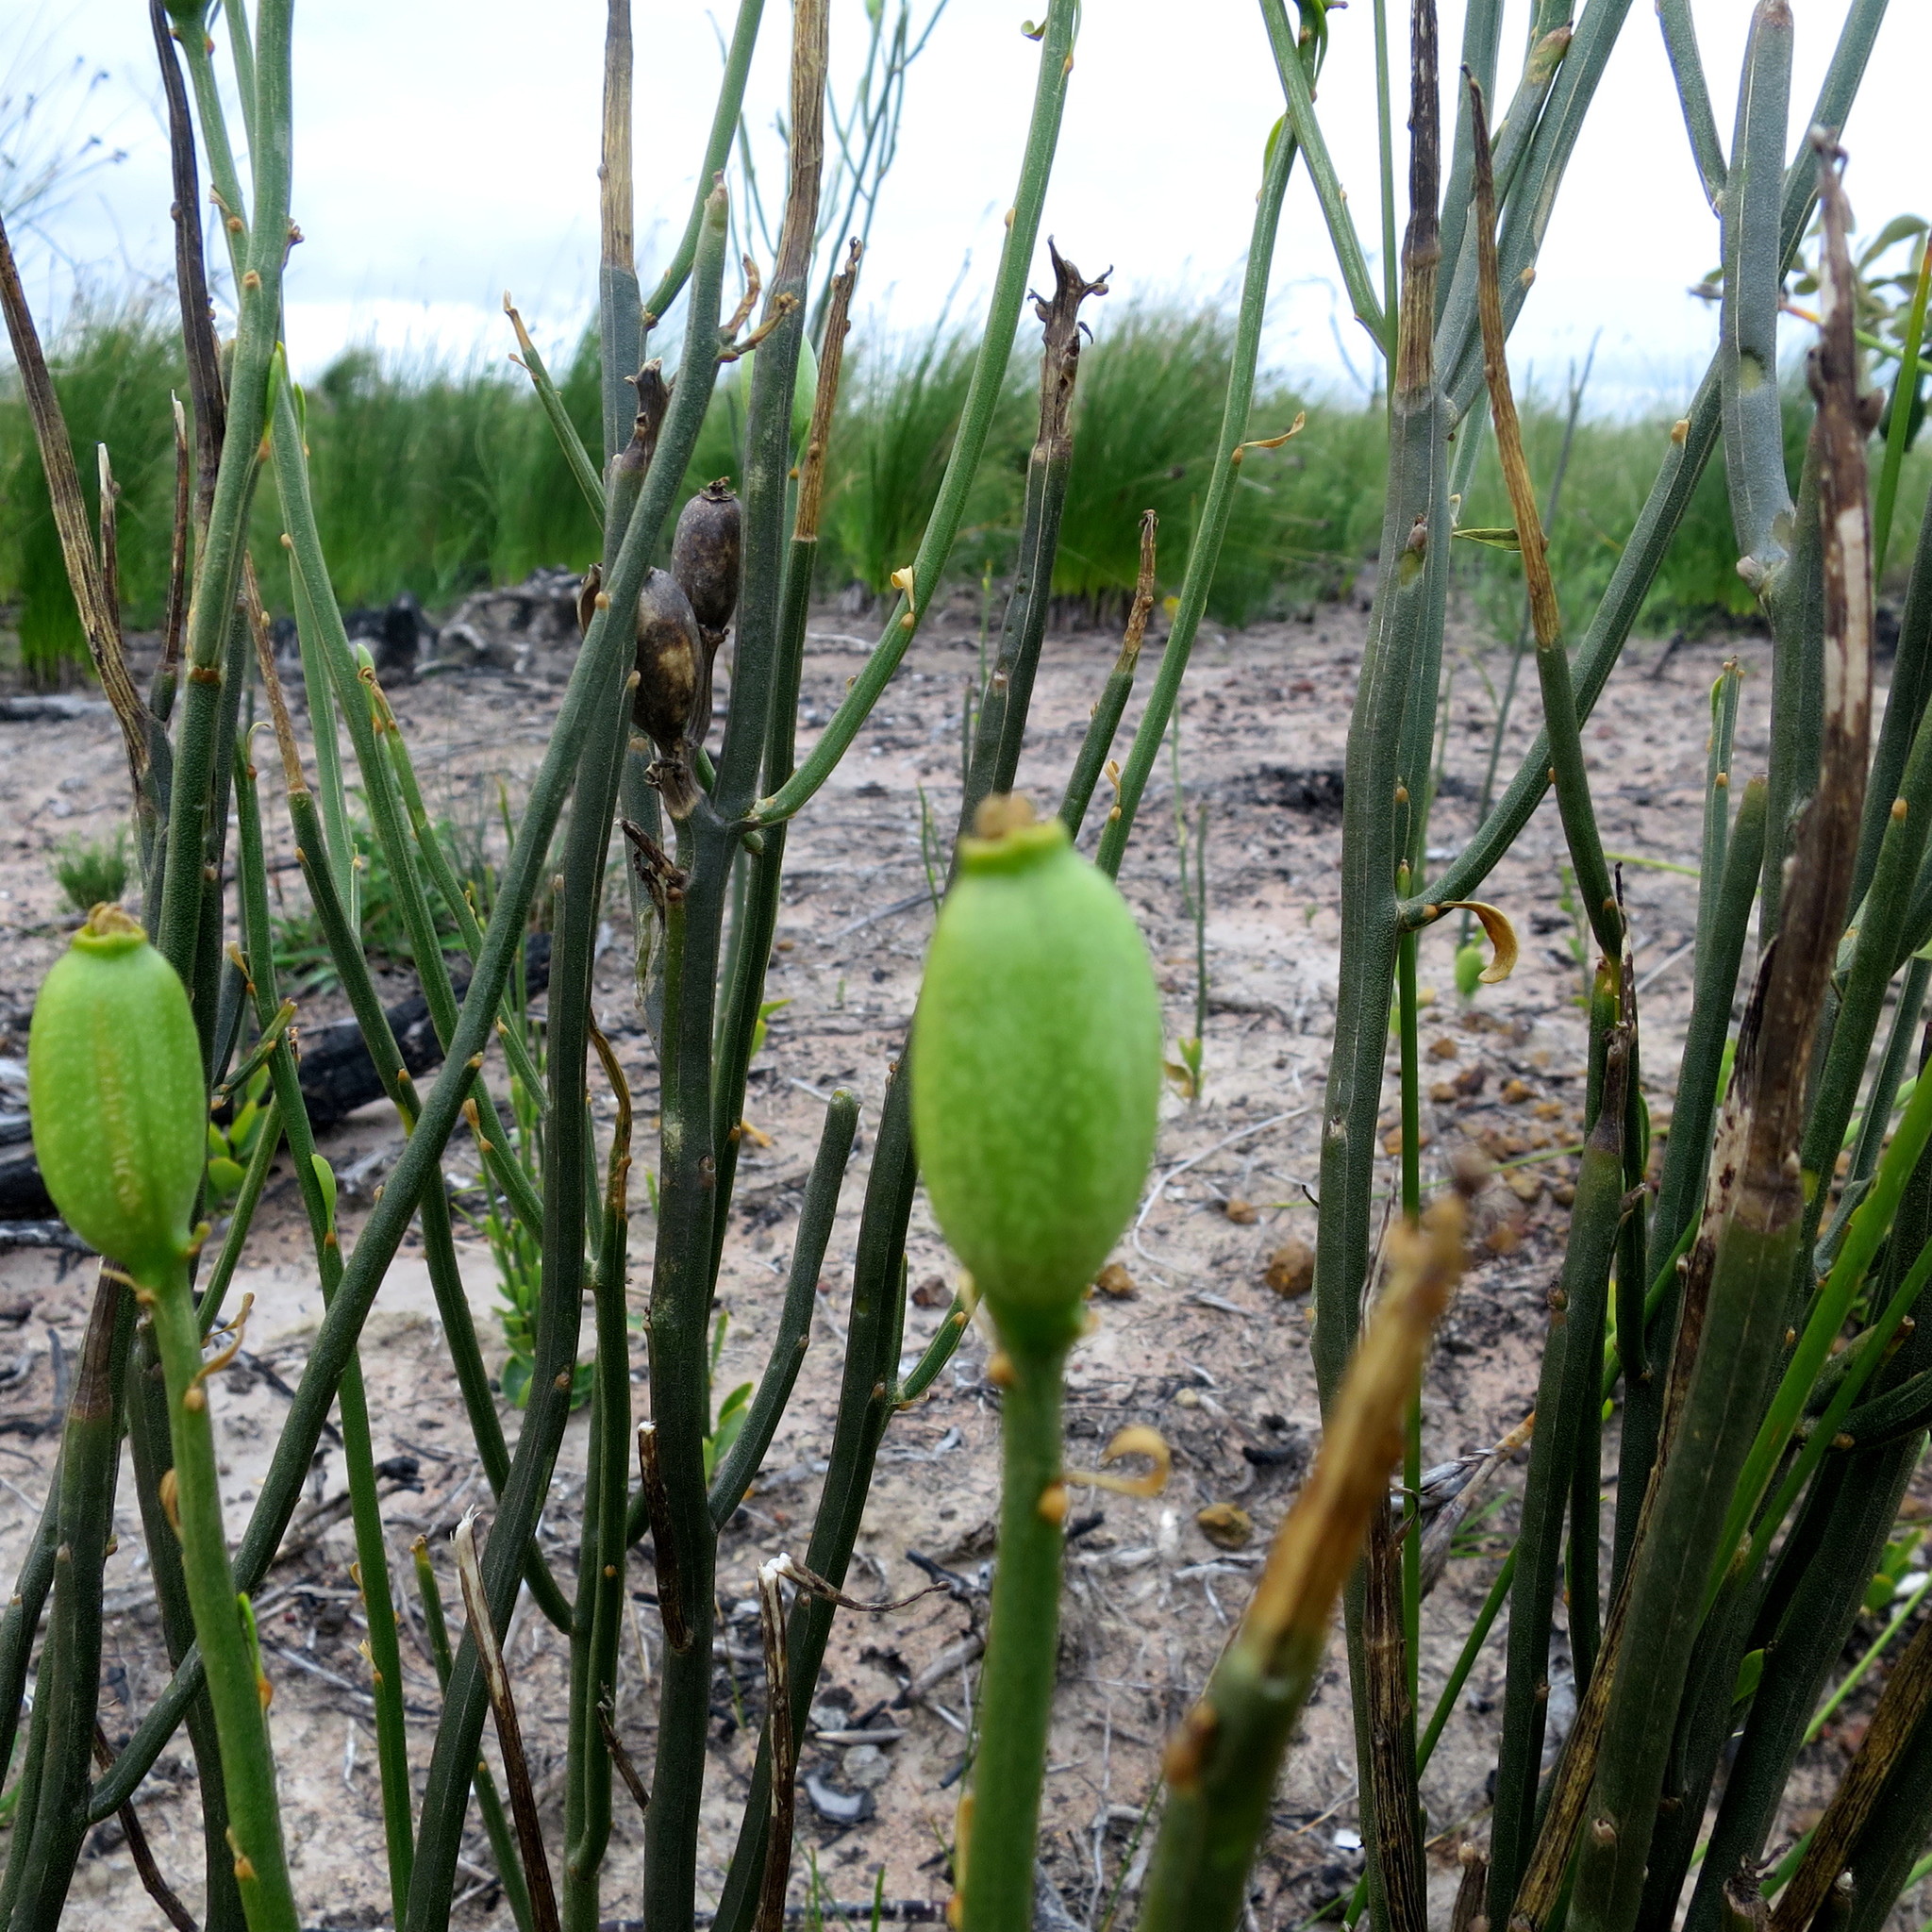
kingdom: Plantae
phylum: Tracheophyta
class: Magnoliopsida
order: Solanales
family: Montiniaceae
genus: Montinia
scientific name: Montinia caryophyllacea
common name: Wild clove-bush
